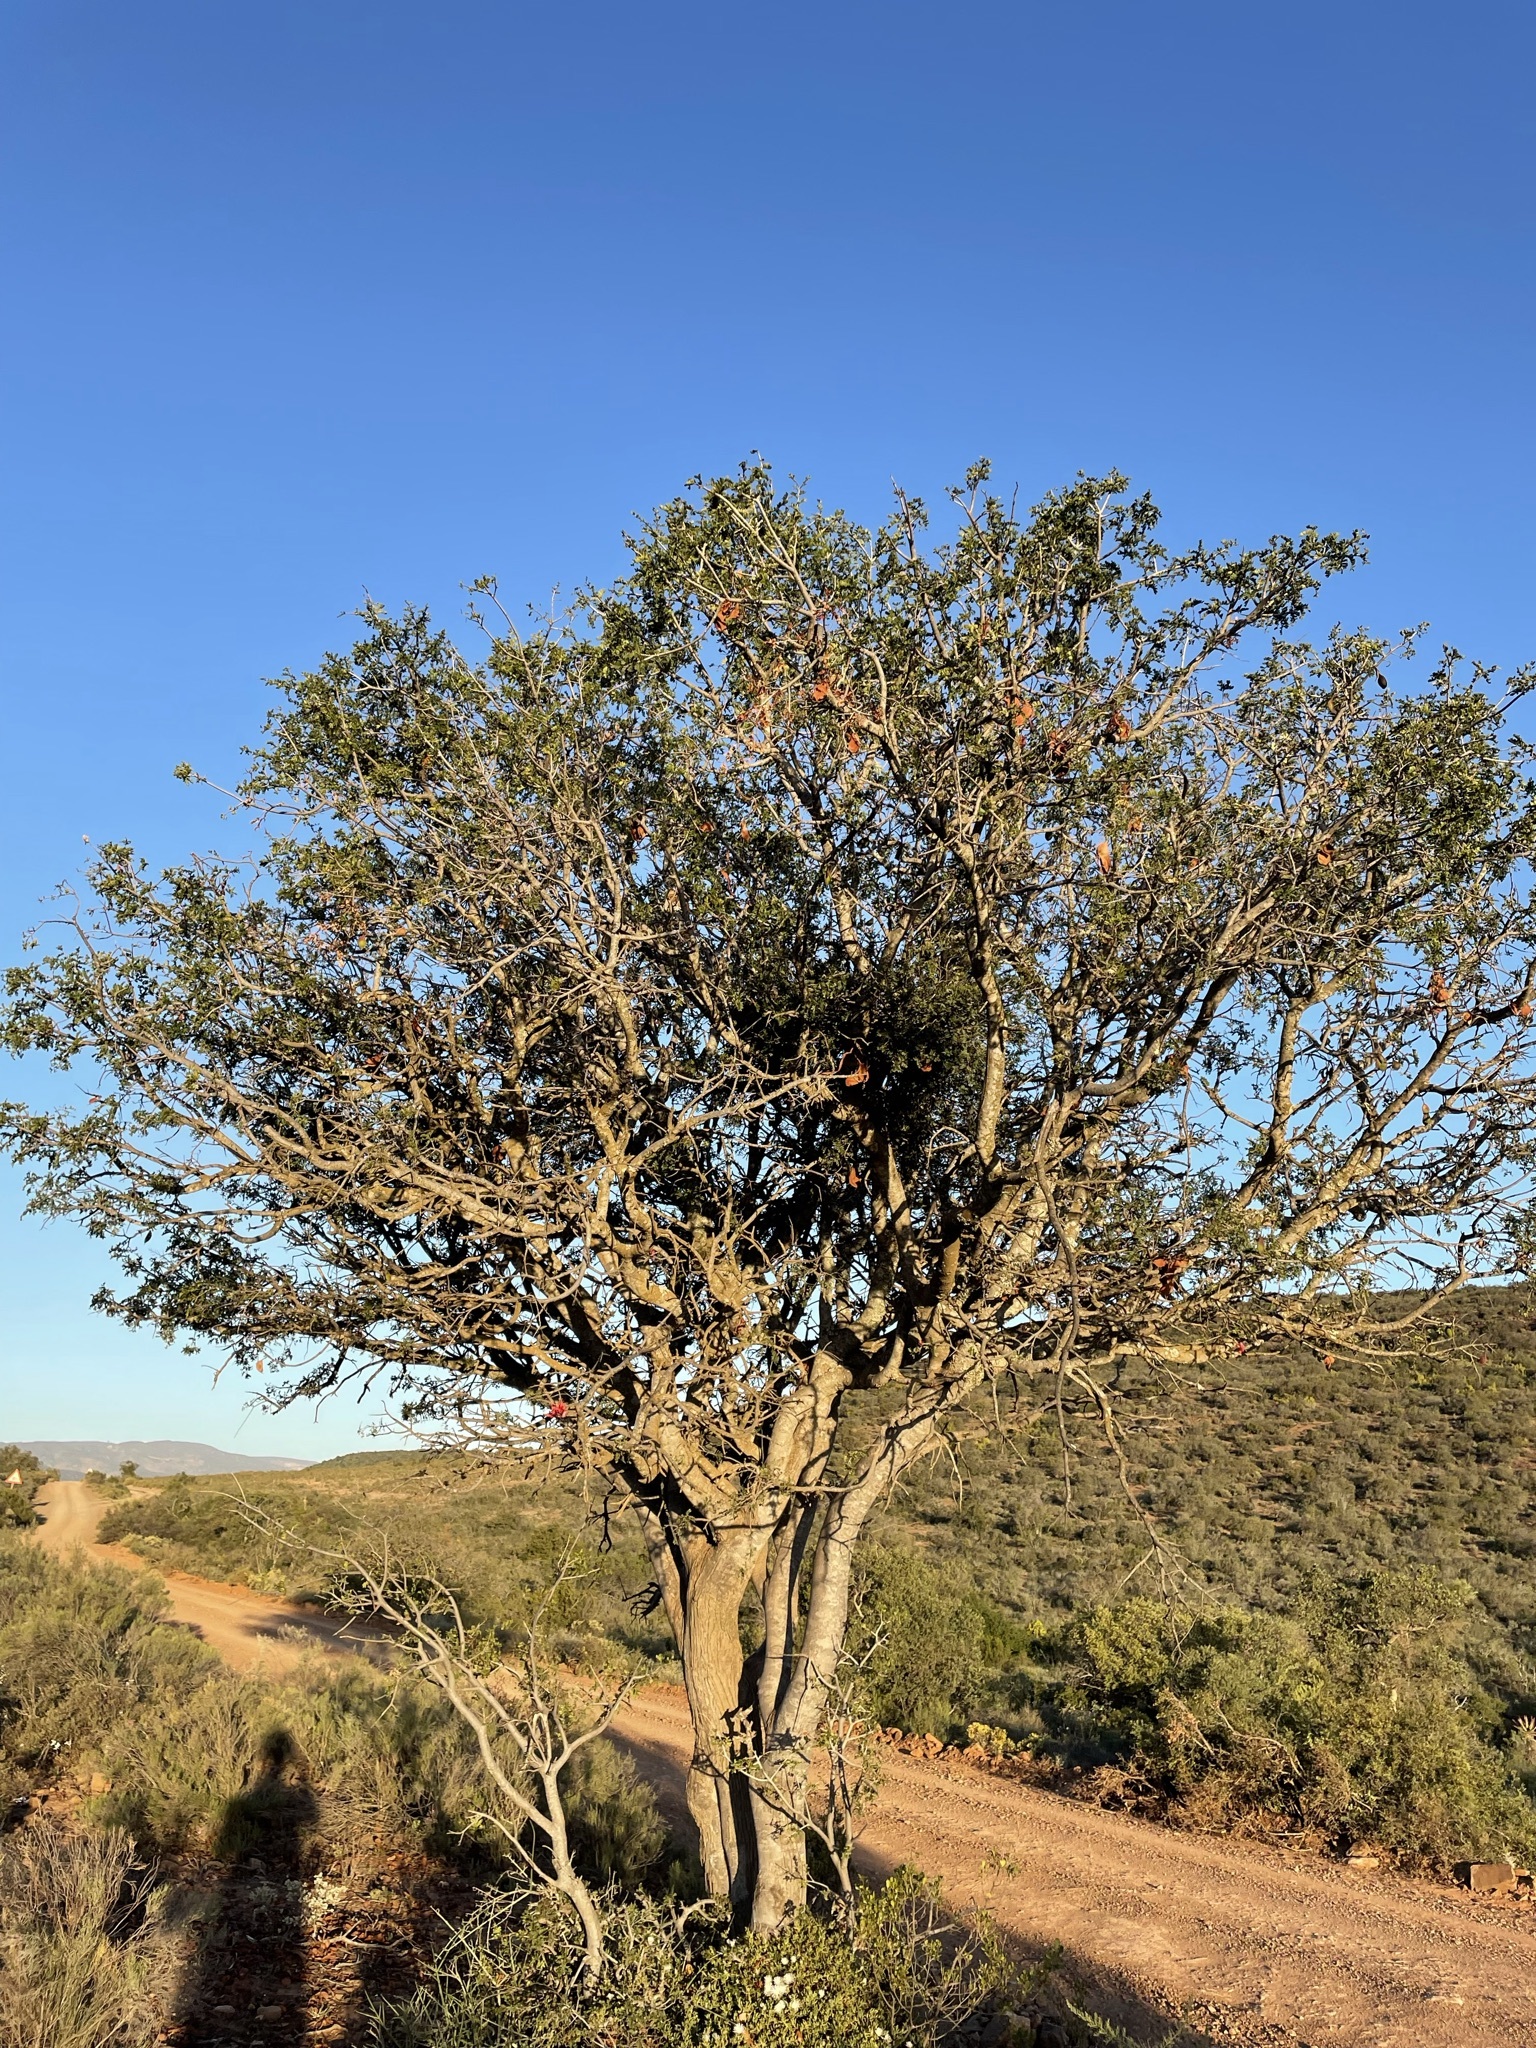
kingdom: Plantae
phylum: Tracheophyta
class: Magnoliopsida
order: Fabales
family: Fabaceae
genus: Schotia
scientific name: Schotia afra
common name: Hottentot's bean
